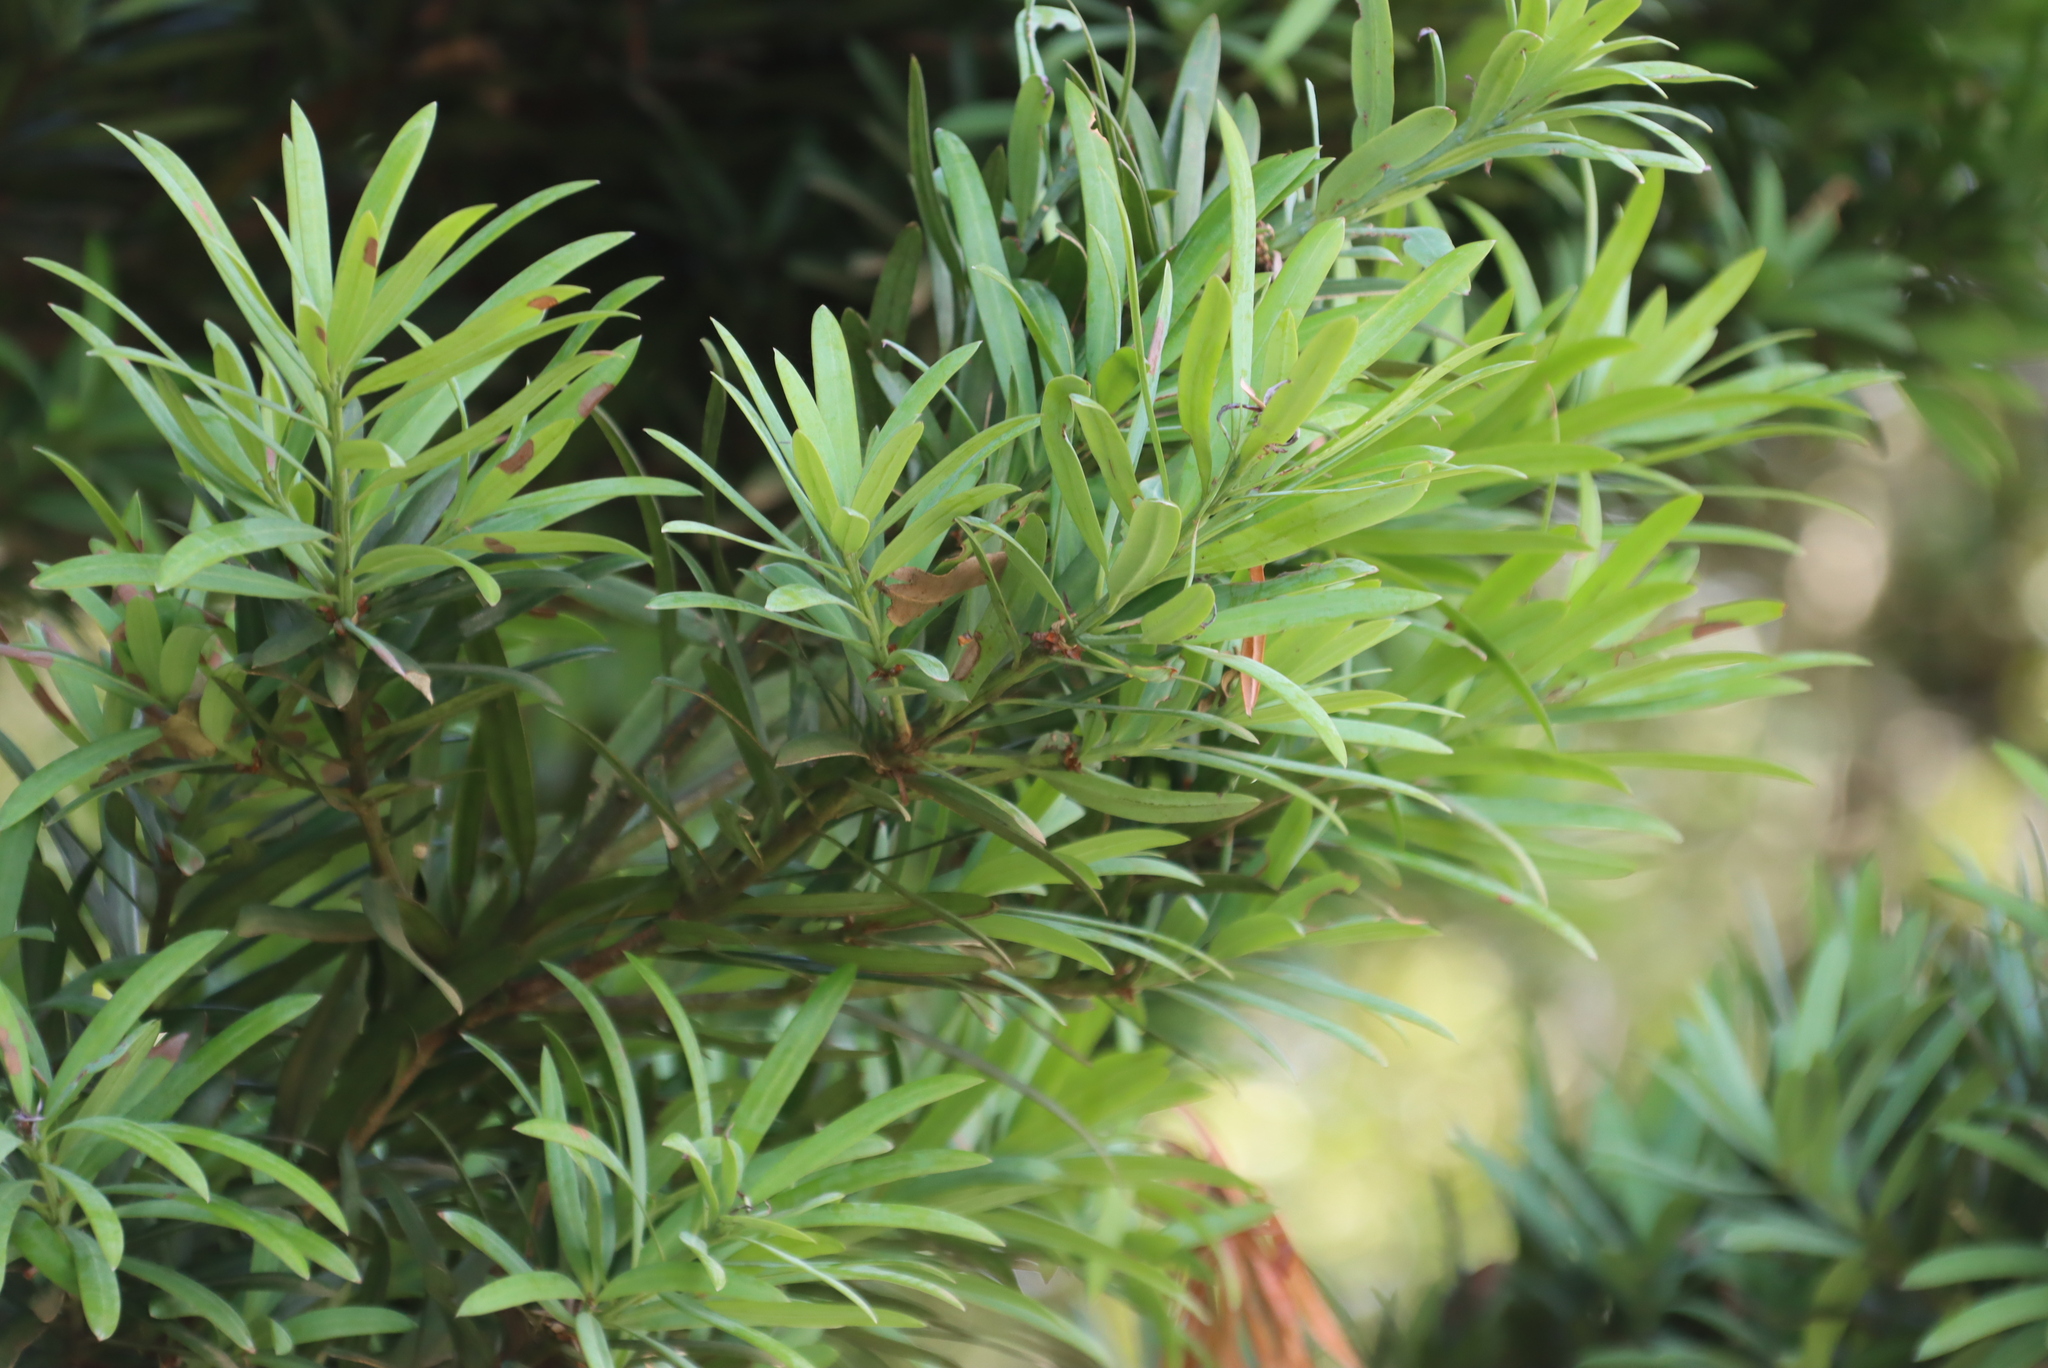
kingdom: Plantae
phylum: Tracheophyta
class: Pinopsida
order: Pinales
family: Podocarpaceae
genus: Podocarpus
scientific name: Podocarpus latifolius
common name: True yellowwood
